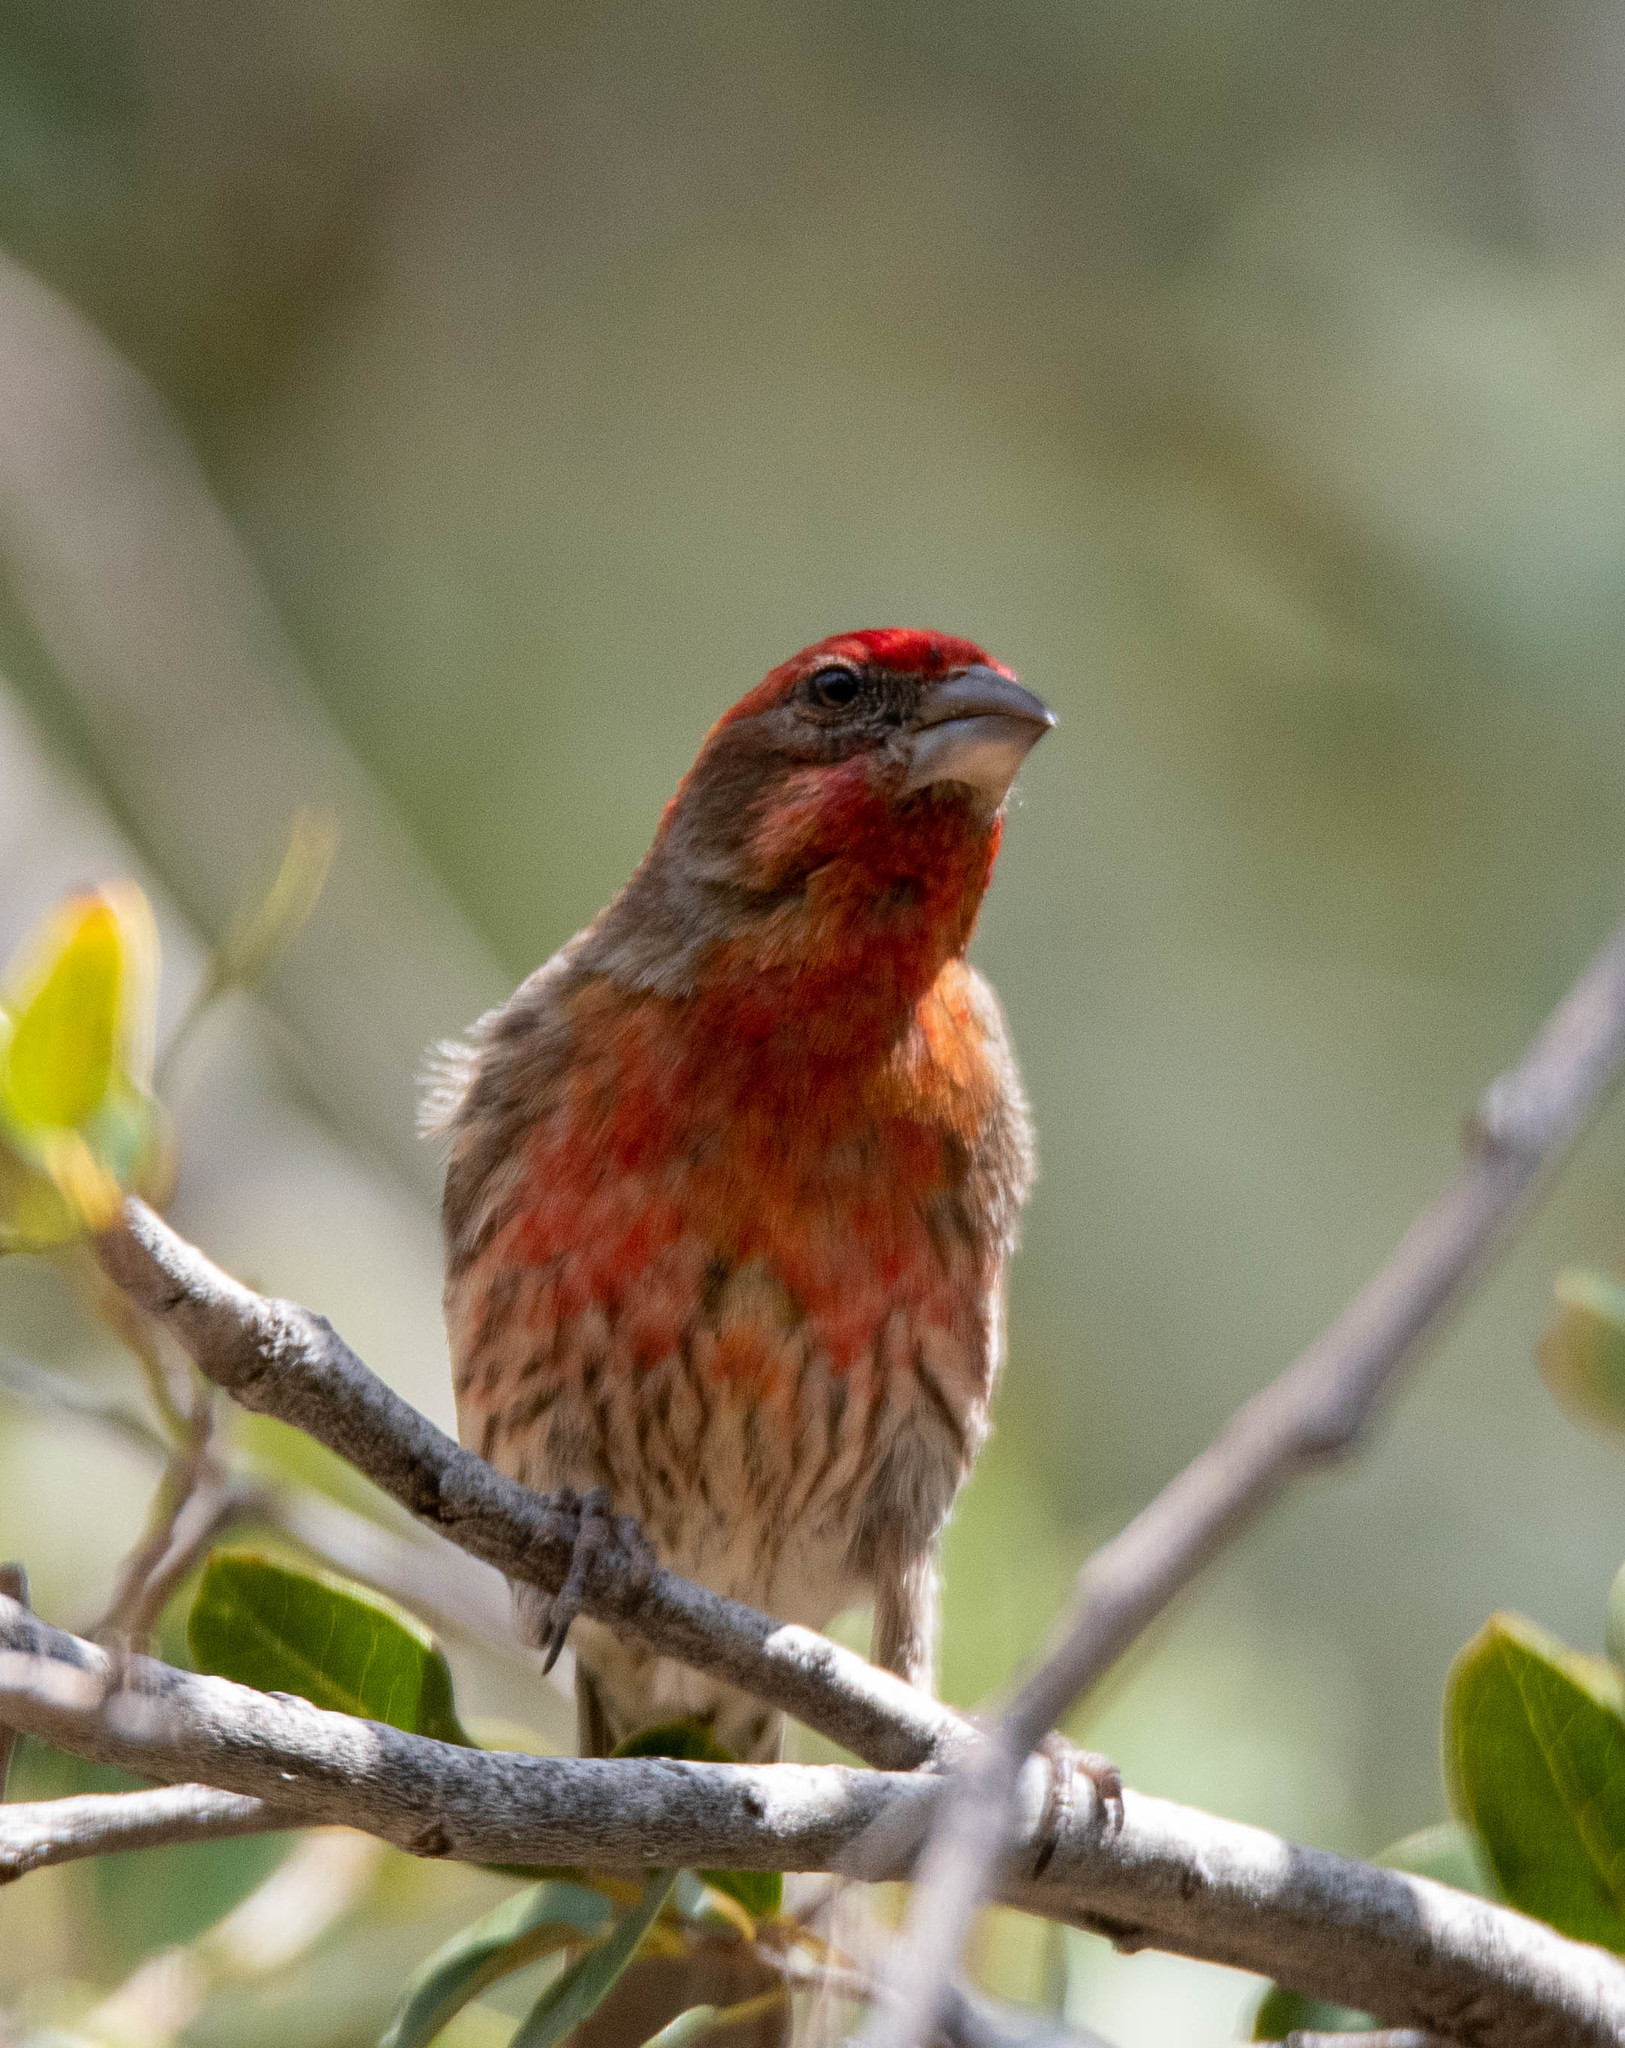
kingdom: Animalia
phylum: Chordata
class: Aves
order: Passeriformes
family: Fringillidae
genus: Haemorhous
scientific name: Haemorhous mexicanus
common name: House finch
